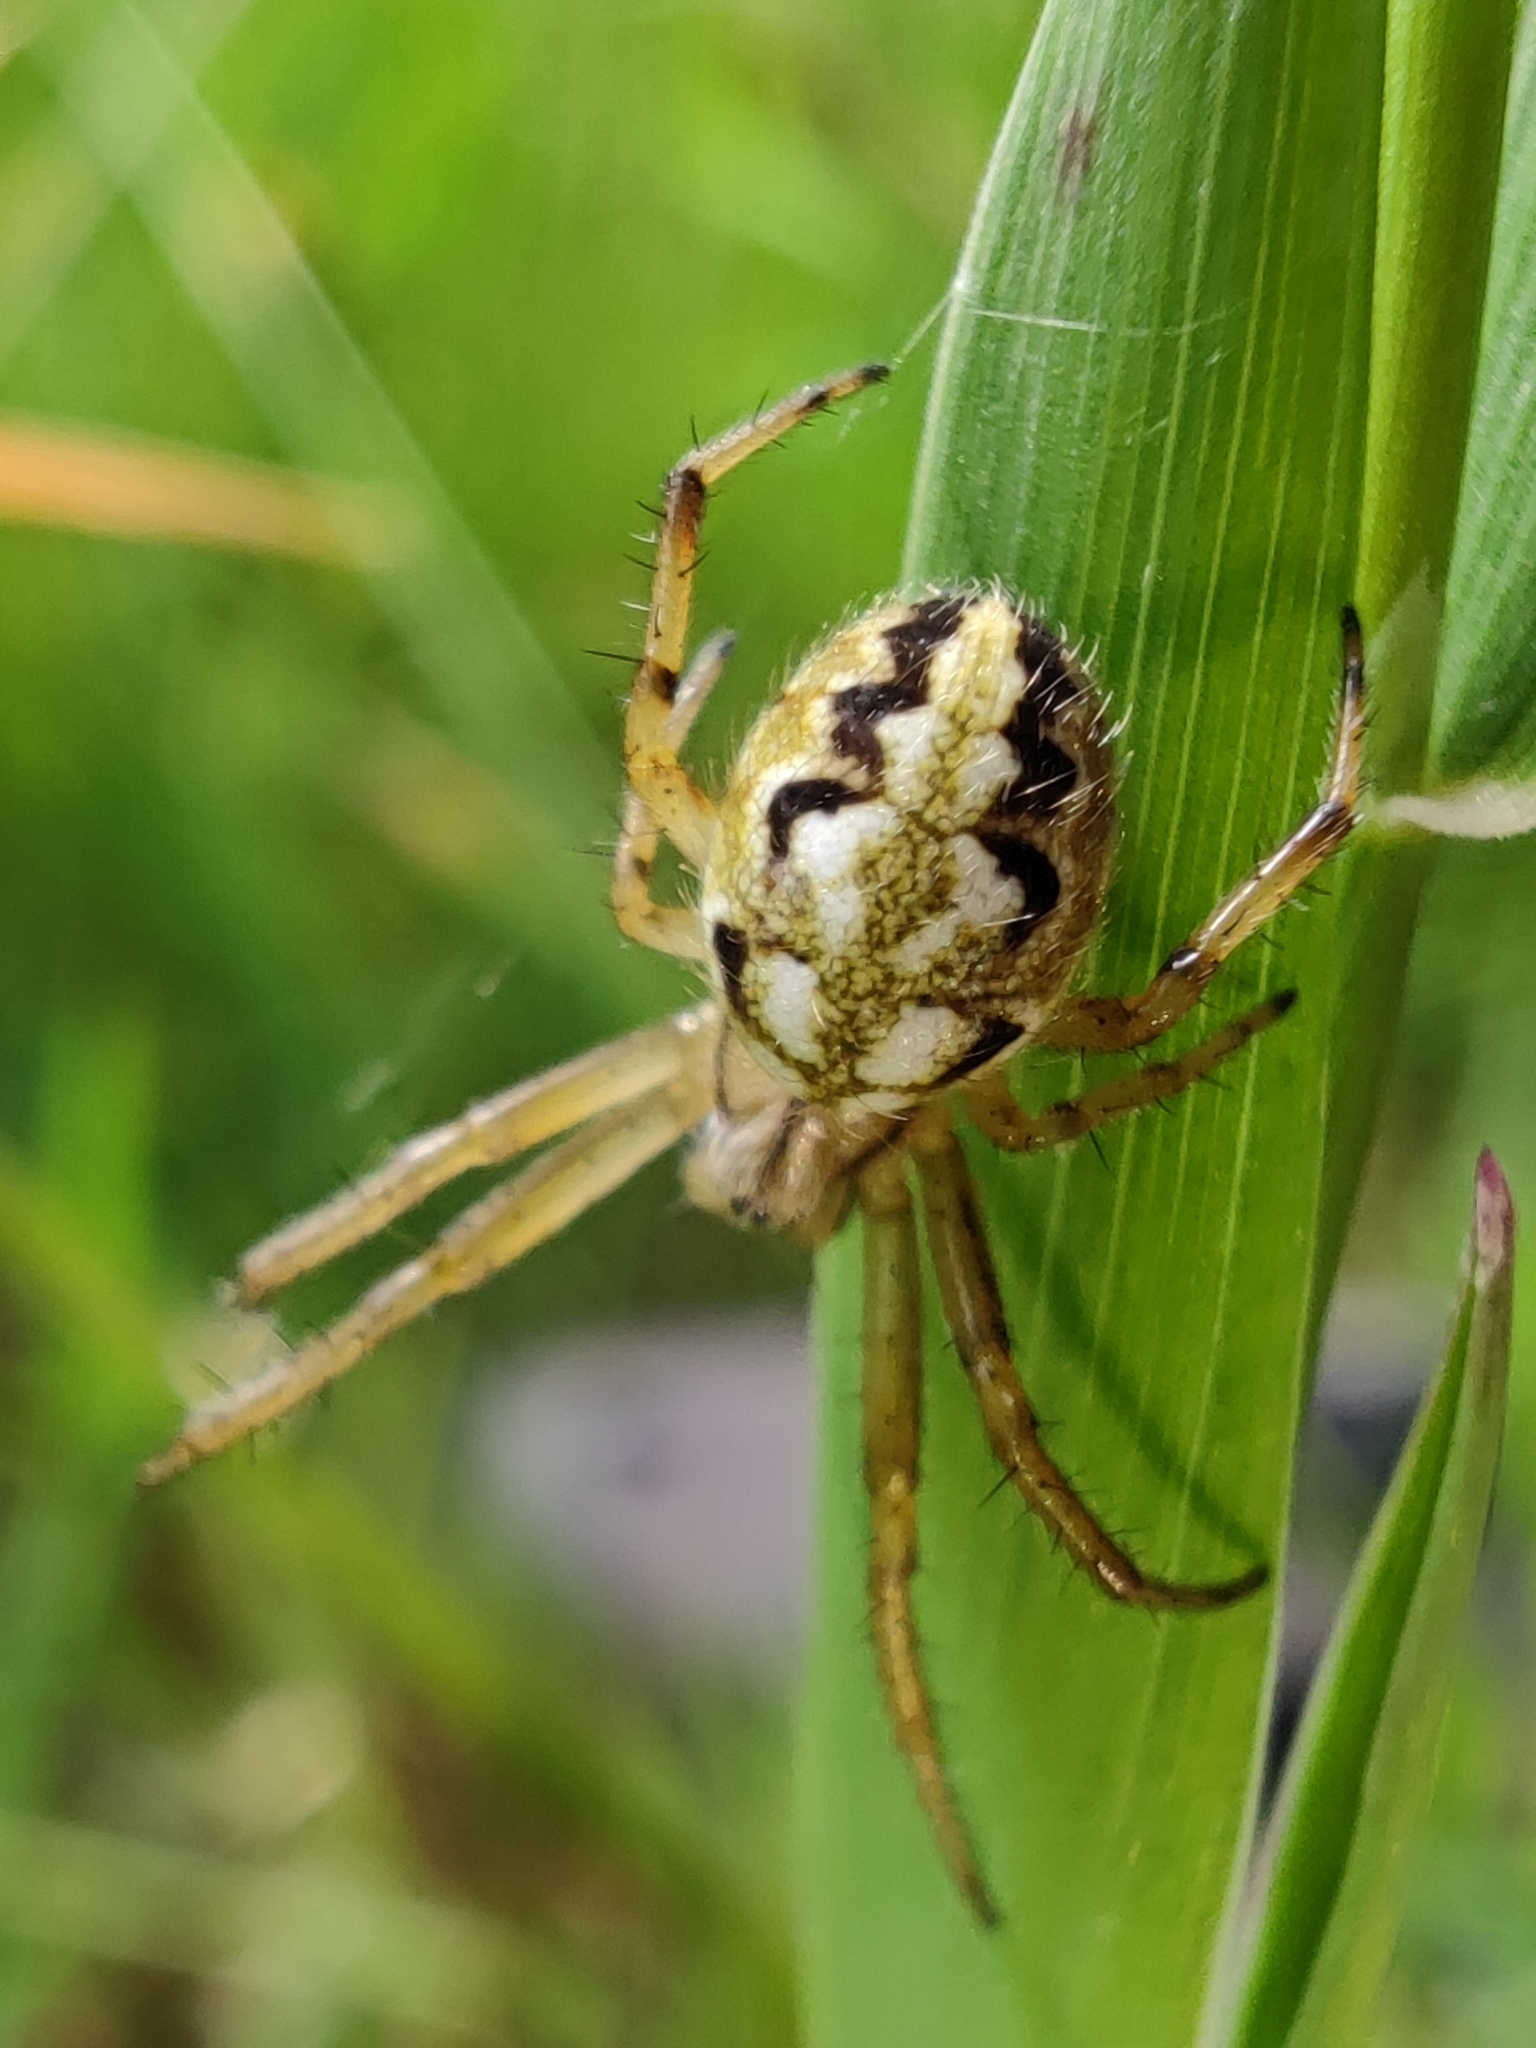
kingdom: Animalia
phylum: Arthropoda
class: Arachnida
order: Araneae
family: Araneidae
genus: Neoscona
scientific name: Neoscona adianta
